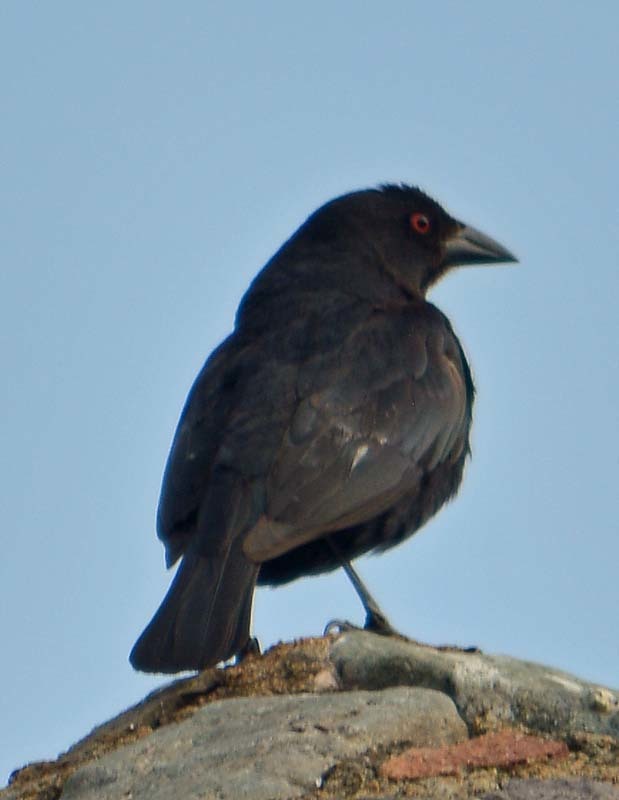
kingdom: Animalia
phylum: Chordata
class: Aves
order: Passeriformes
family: Icteridae
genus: Molothrus
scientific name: Molothrus aeneus
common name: Bronzed cowbird
